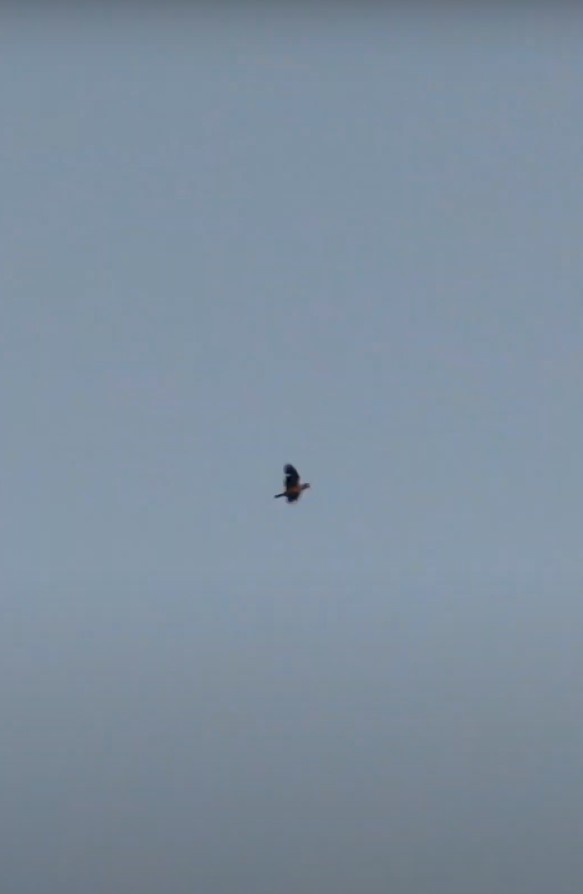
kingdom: Animalia
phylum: Chordata
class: Aves
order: Psittaciformes
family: Psittacidae
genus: Amazona
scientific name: Amazona
